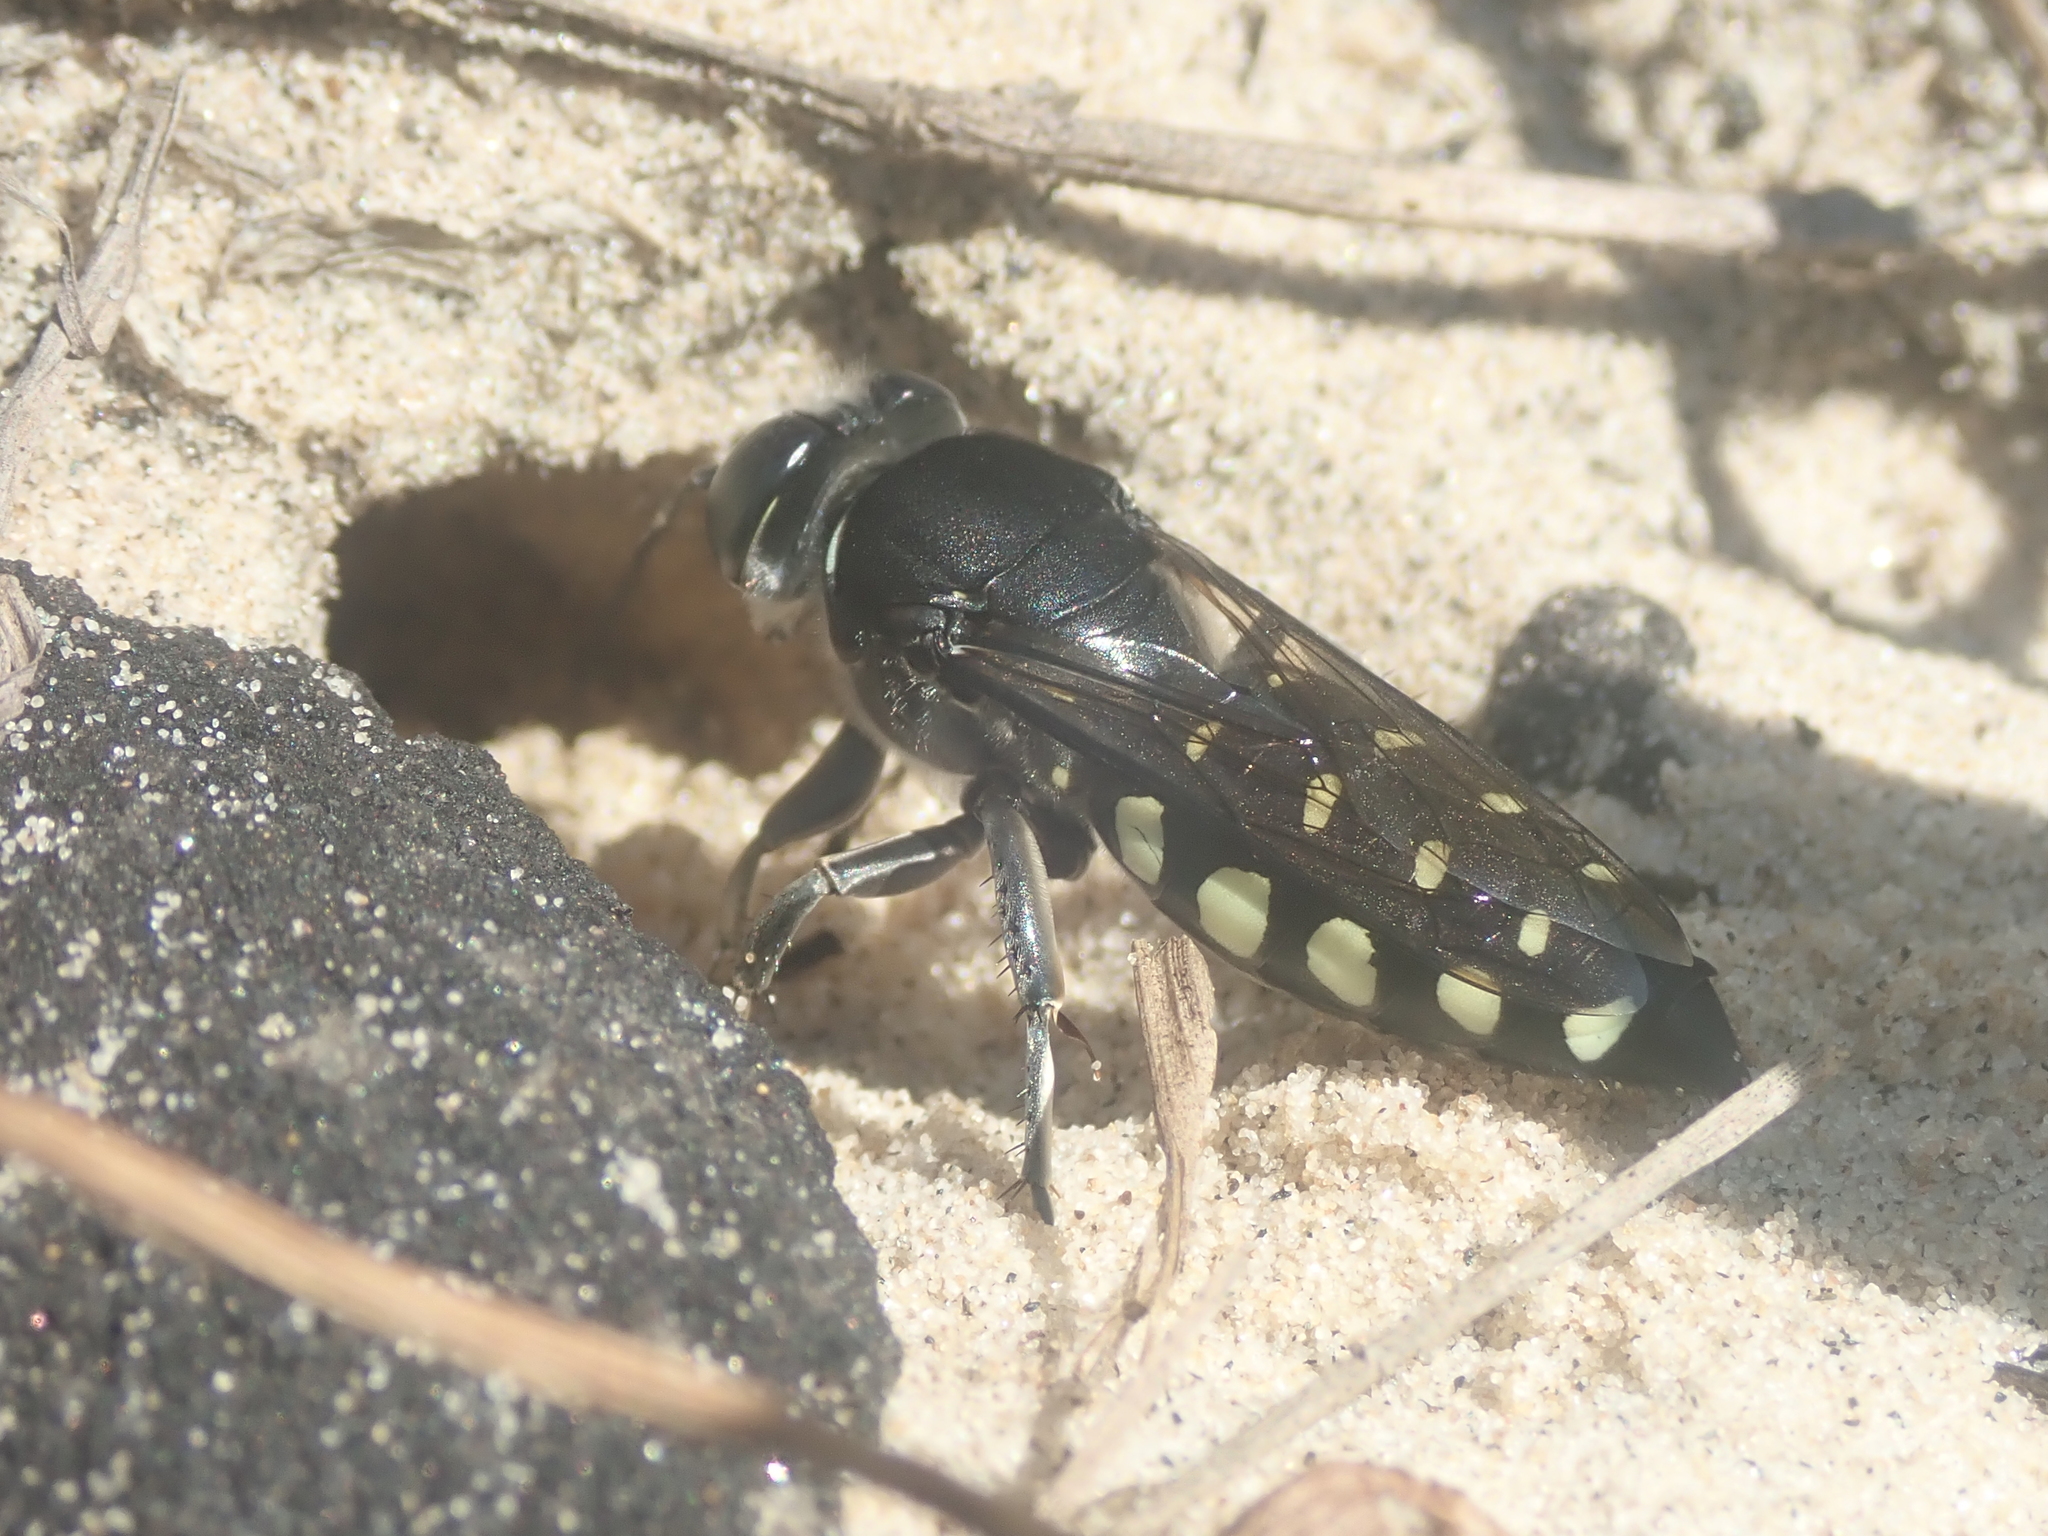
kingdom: Animalia
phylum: Arthropoda
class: Insecta
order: Hymenoptera
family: Crabronidae
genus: Stictia
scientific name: Stictia punctata
